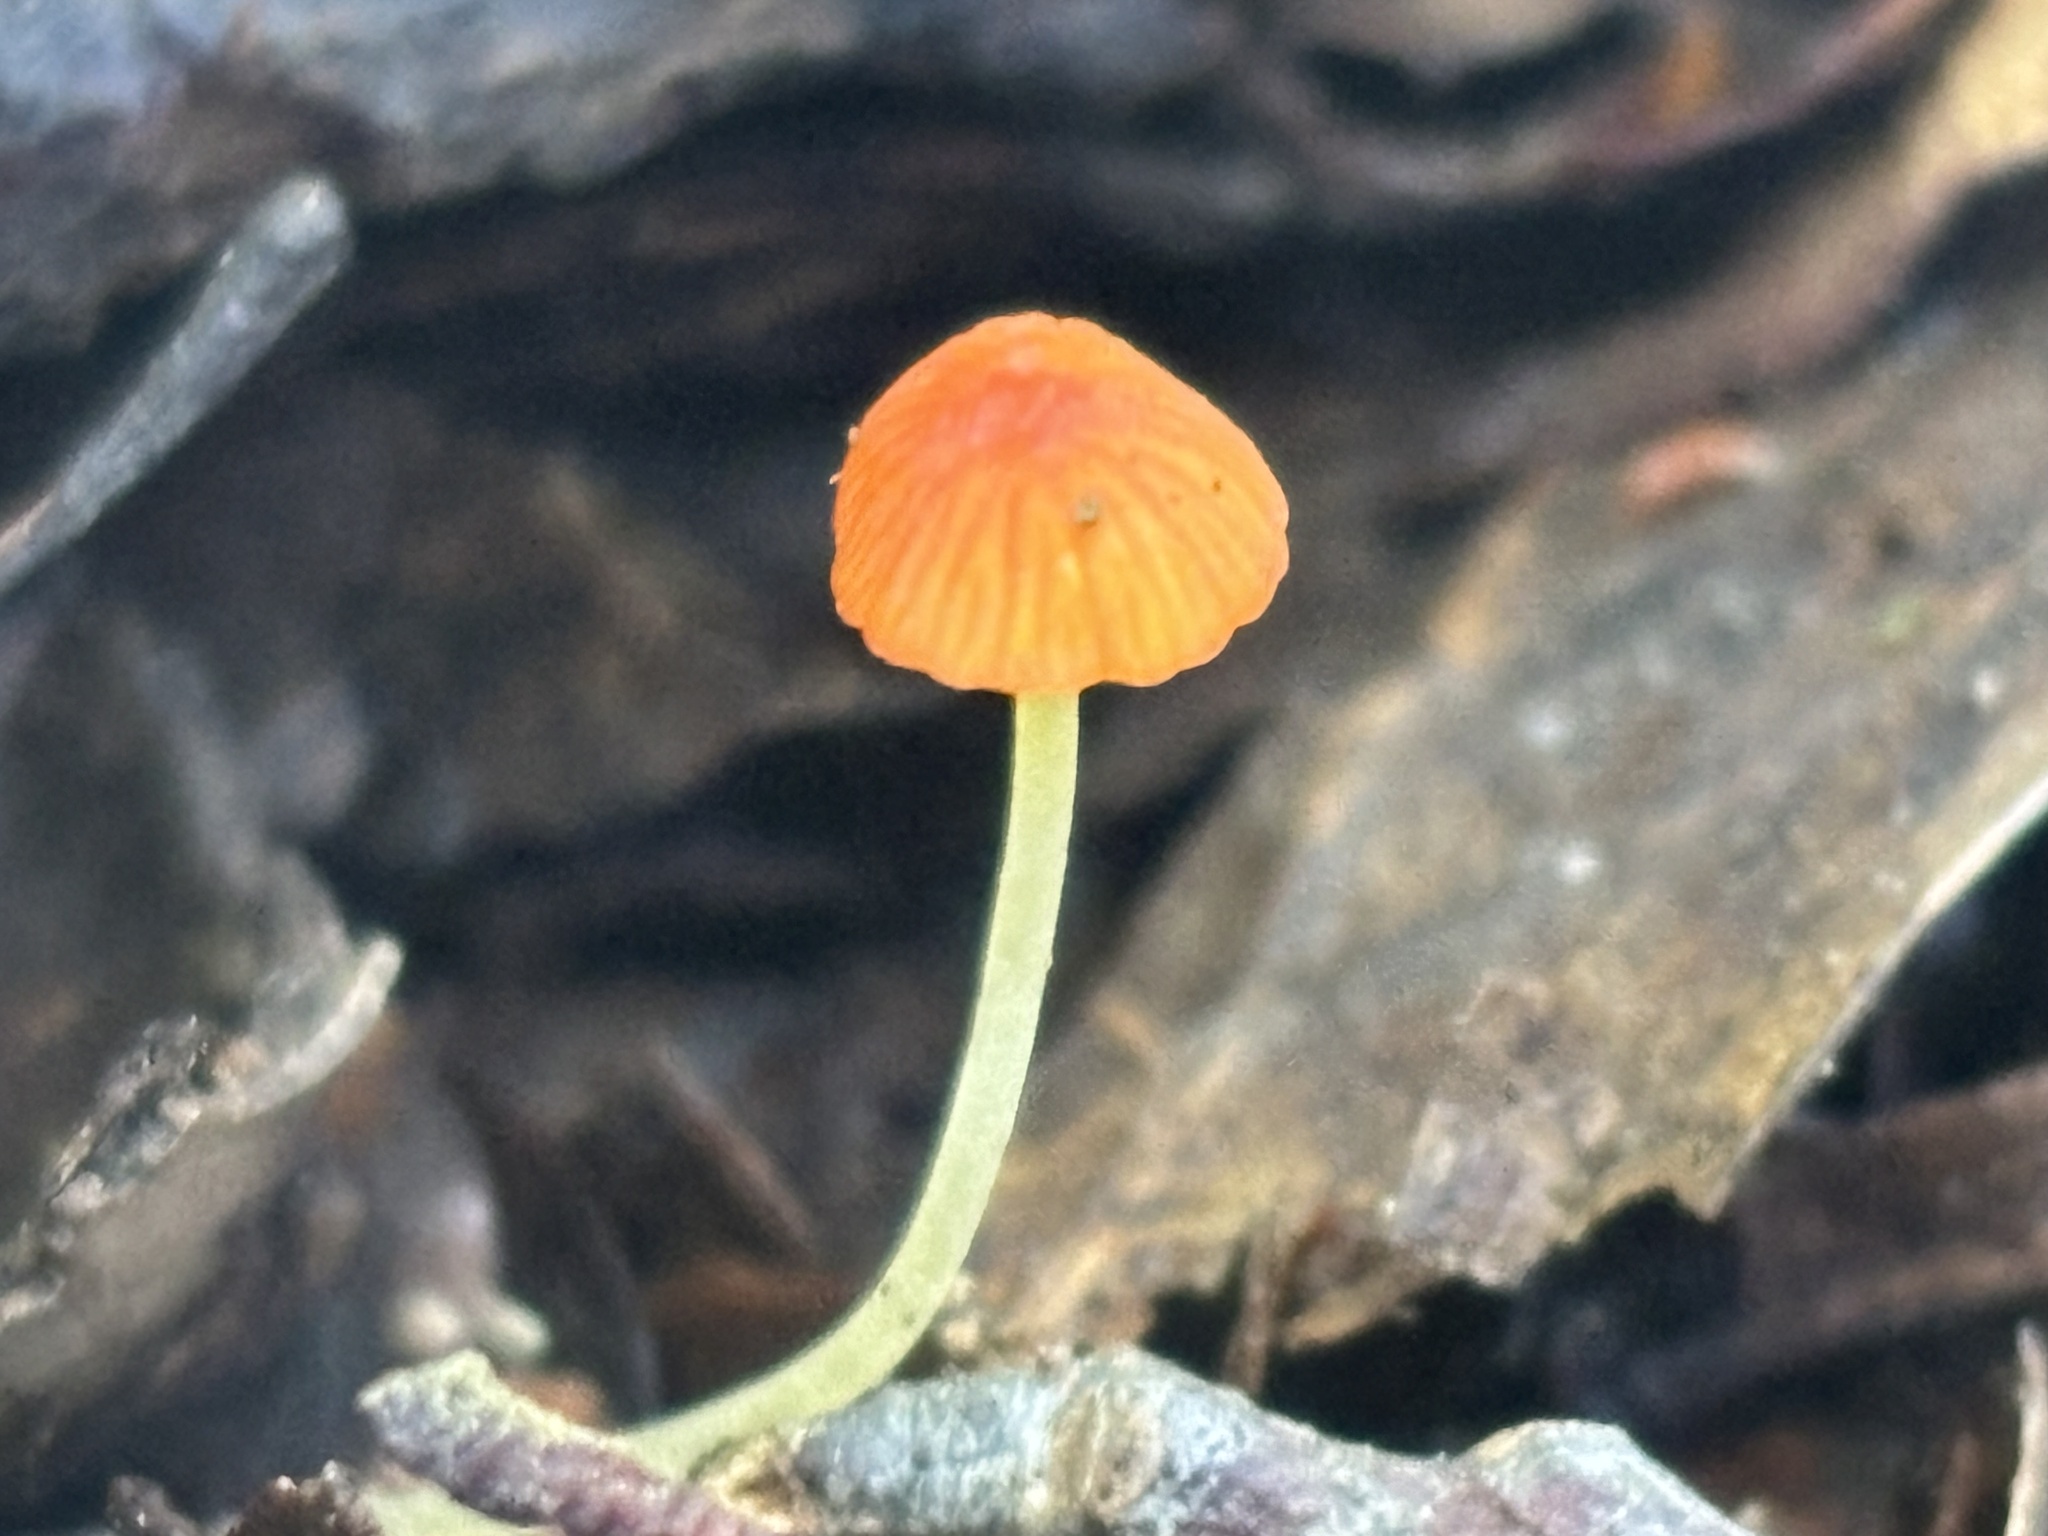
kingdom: Fungi
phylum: Basidiomycota
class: Agaricomycetes
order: Agaricales
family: Mycenaceae
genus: Mycena
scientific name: Mycena acicula
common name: Orange bonnet
